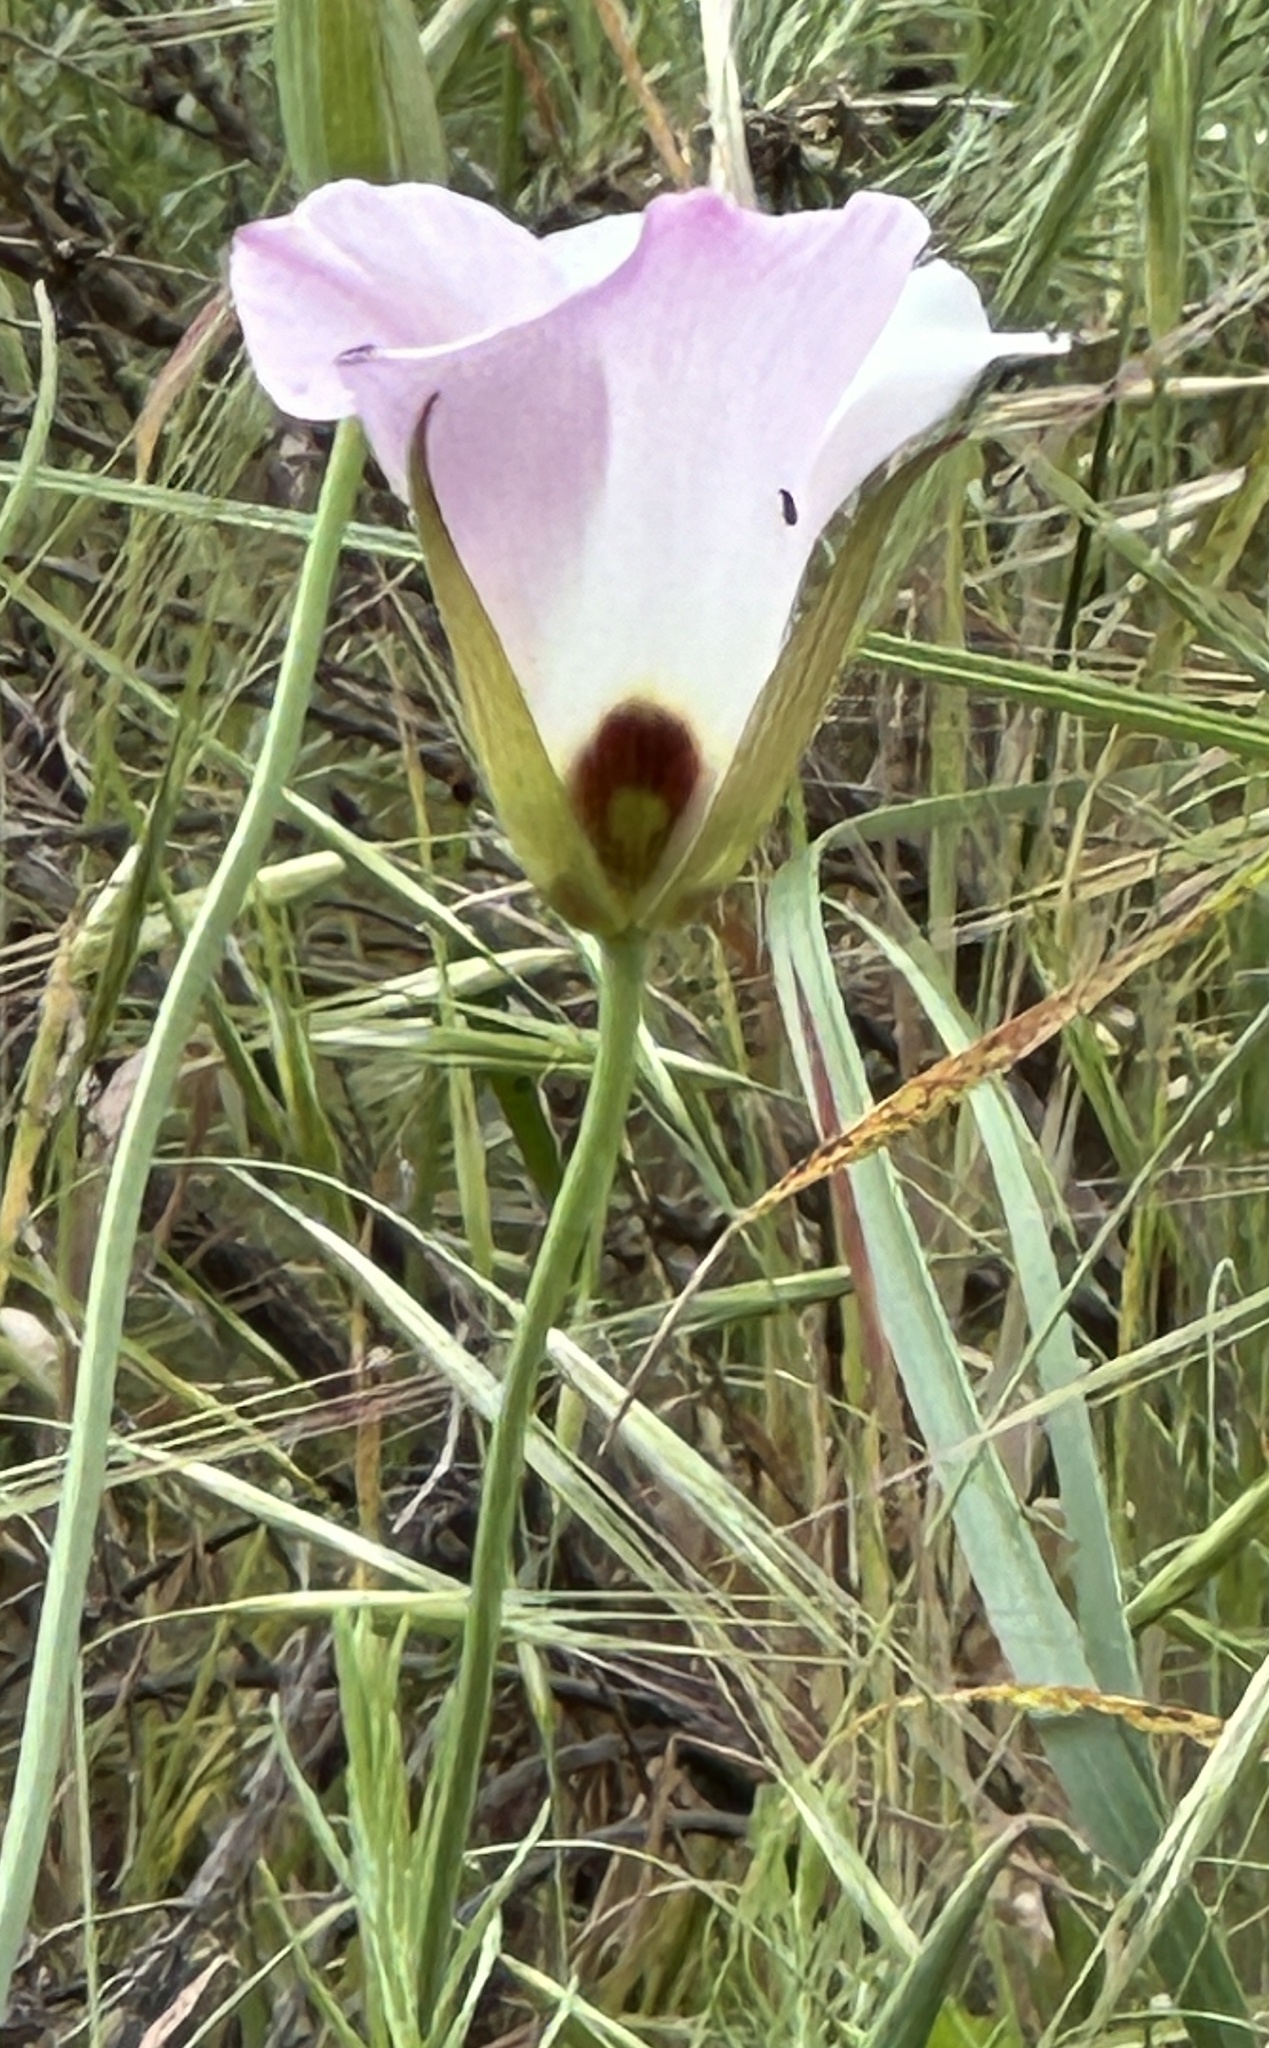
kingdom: Plantae
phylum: Tracheophyta
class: Liliopsida
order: Liliales
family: Liliaceae
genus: Calochortus
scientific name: Calochortus catalinae
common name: Catalina mariposa-lily
